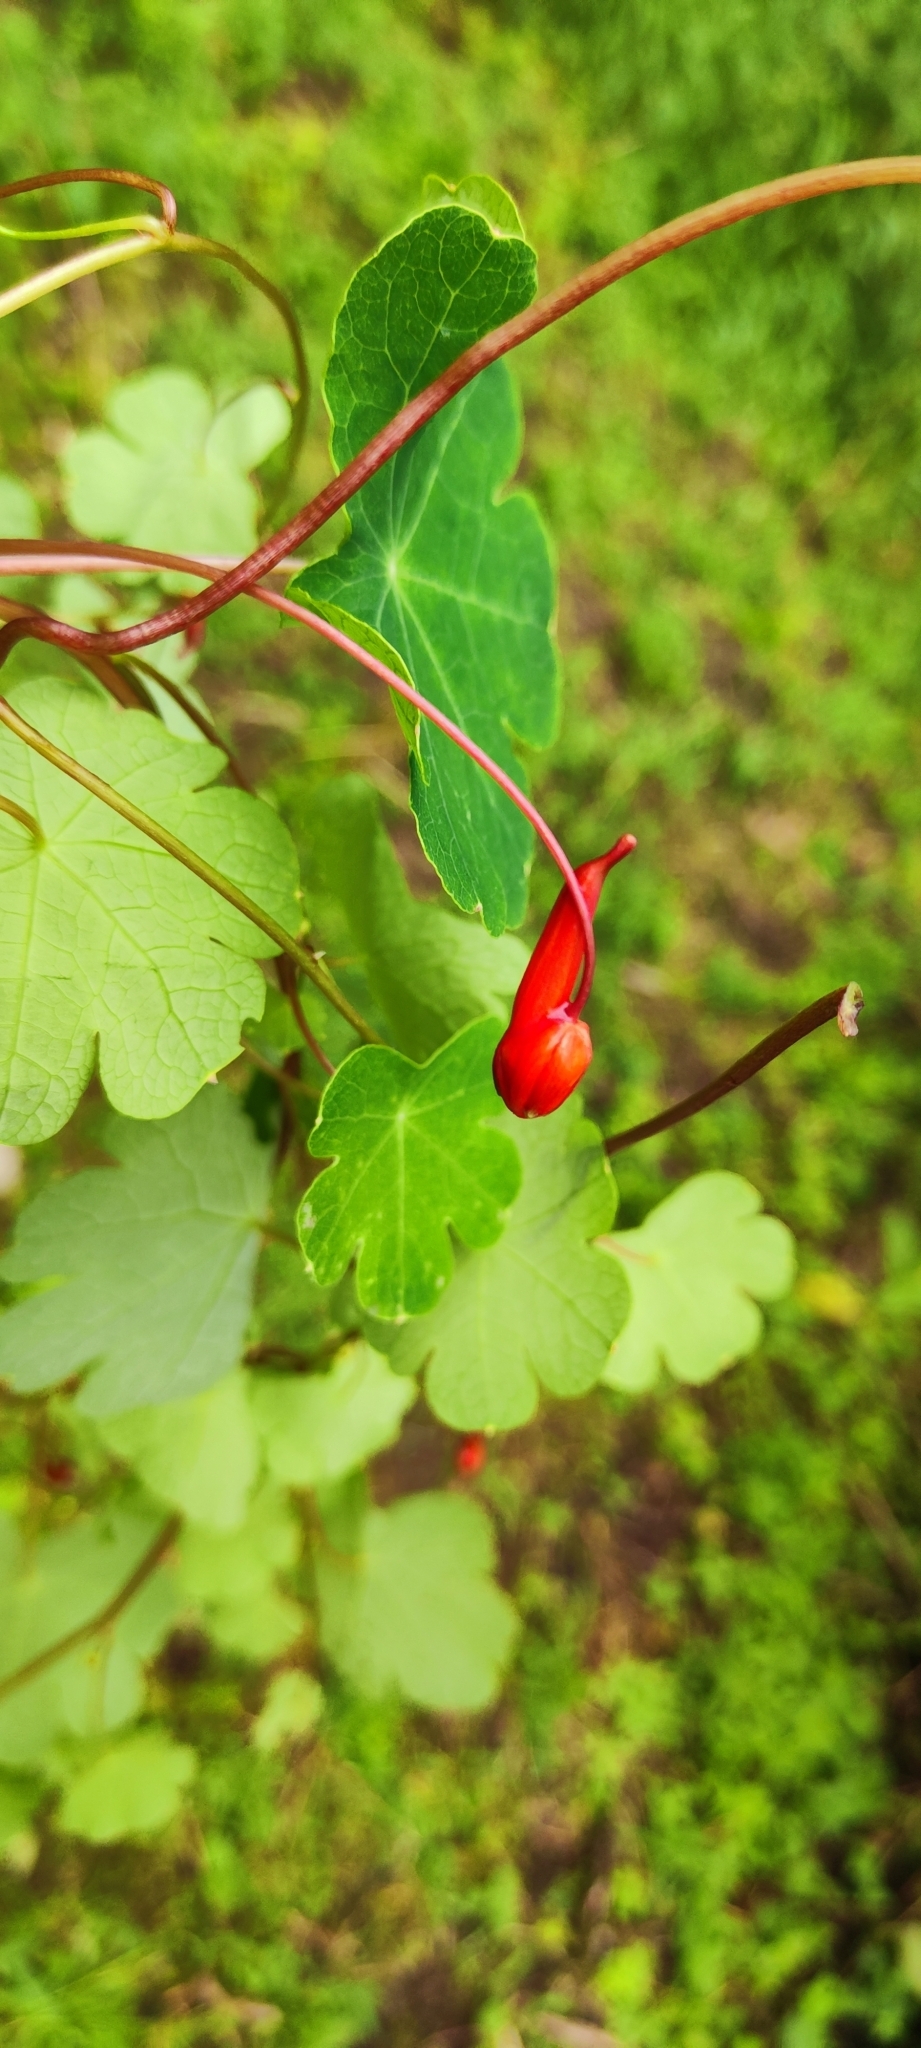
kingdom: Plantae
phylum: Tracheophyta
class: Magnoliopsida
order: Brassicales
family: Tropaeolaceae
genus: Tropaeolum
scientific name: Tropaeolum tuberosum
